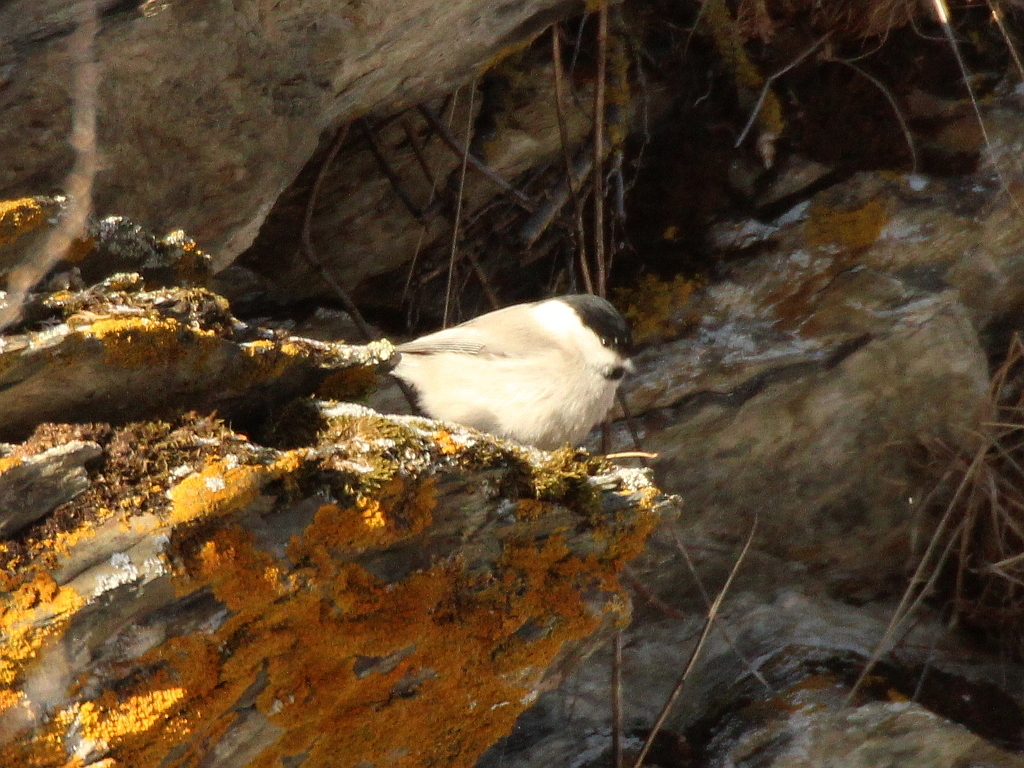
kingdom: Animalia
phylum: Chordata
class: Aves
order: Passeriformes
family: Paridae
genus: Poecile
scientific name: Poecile palustris
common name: Marsh tit
